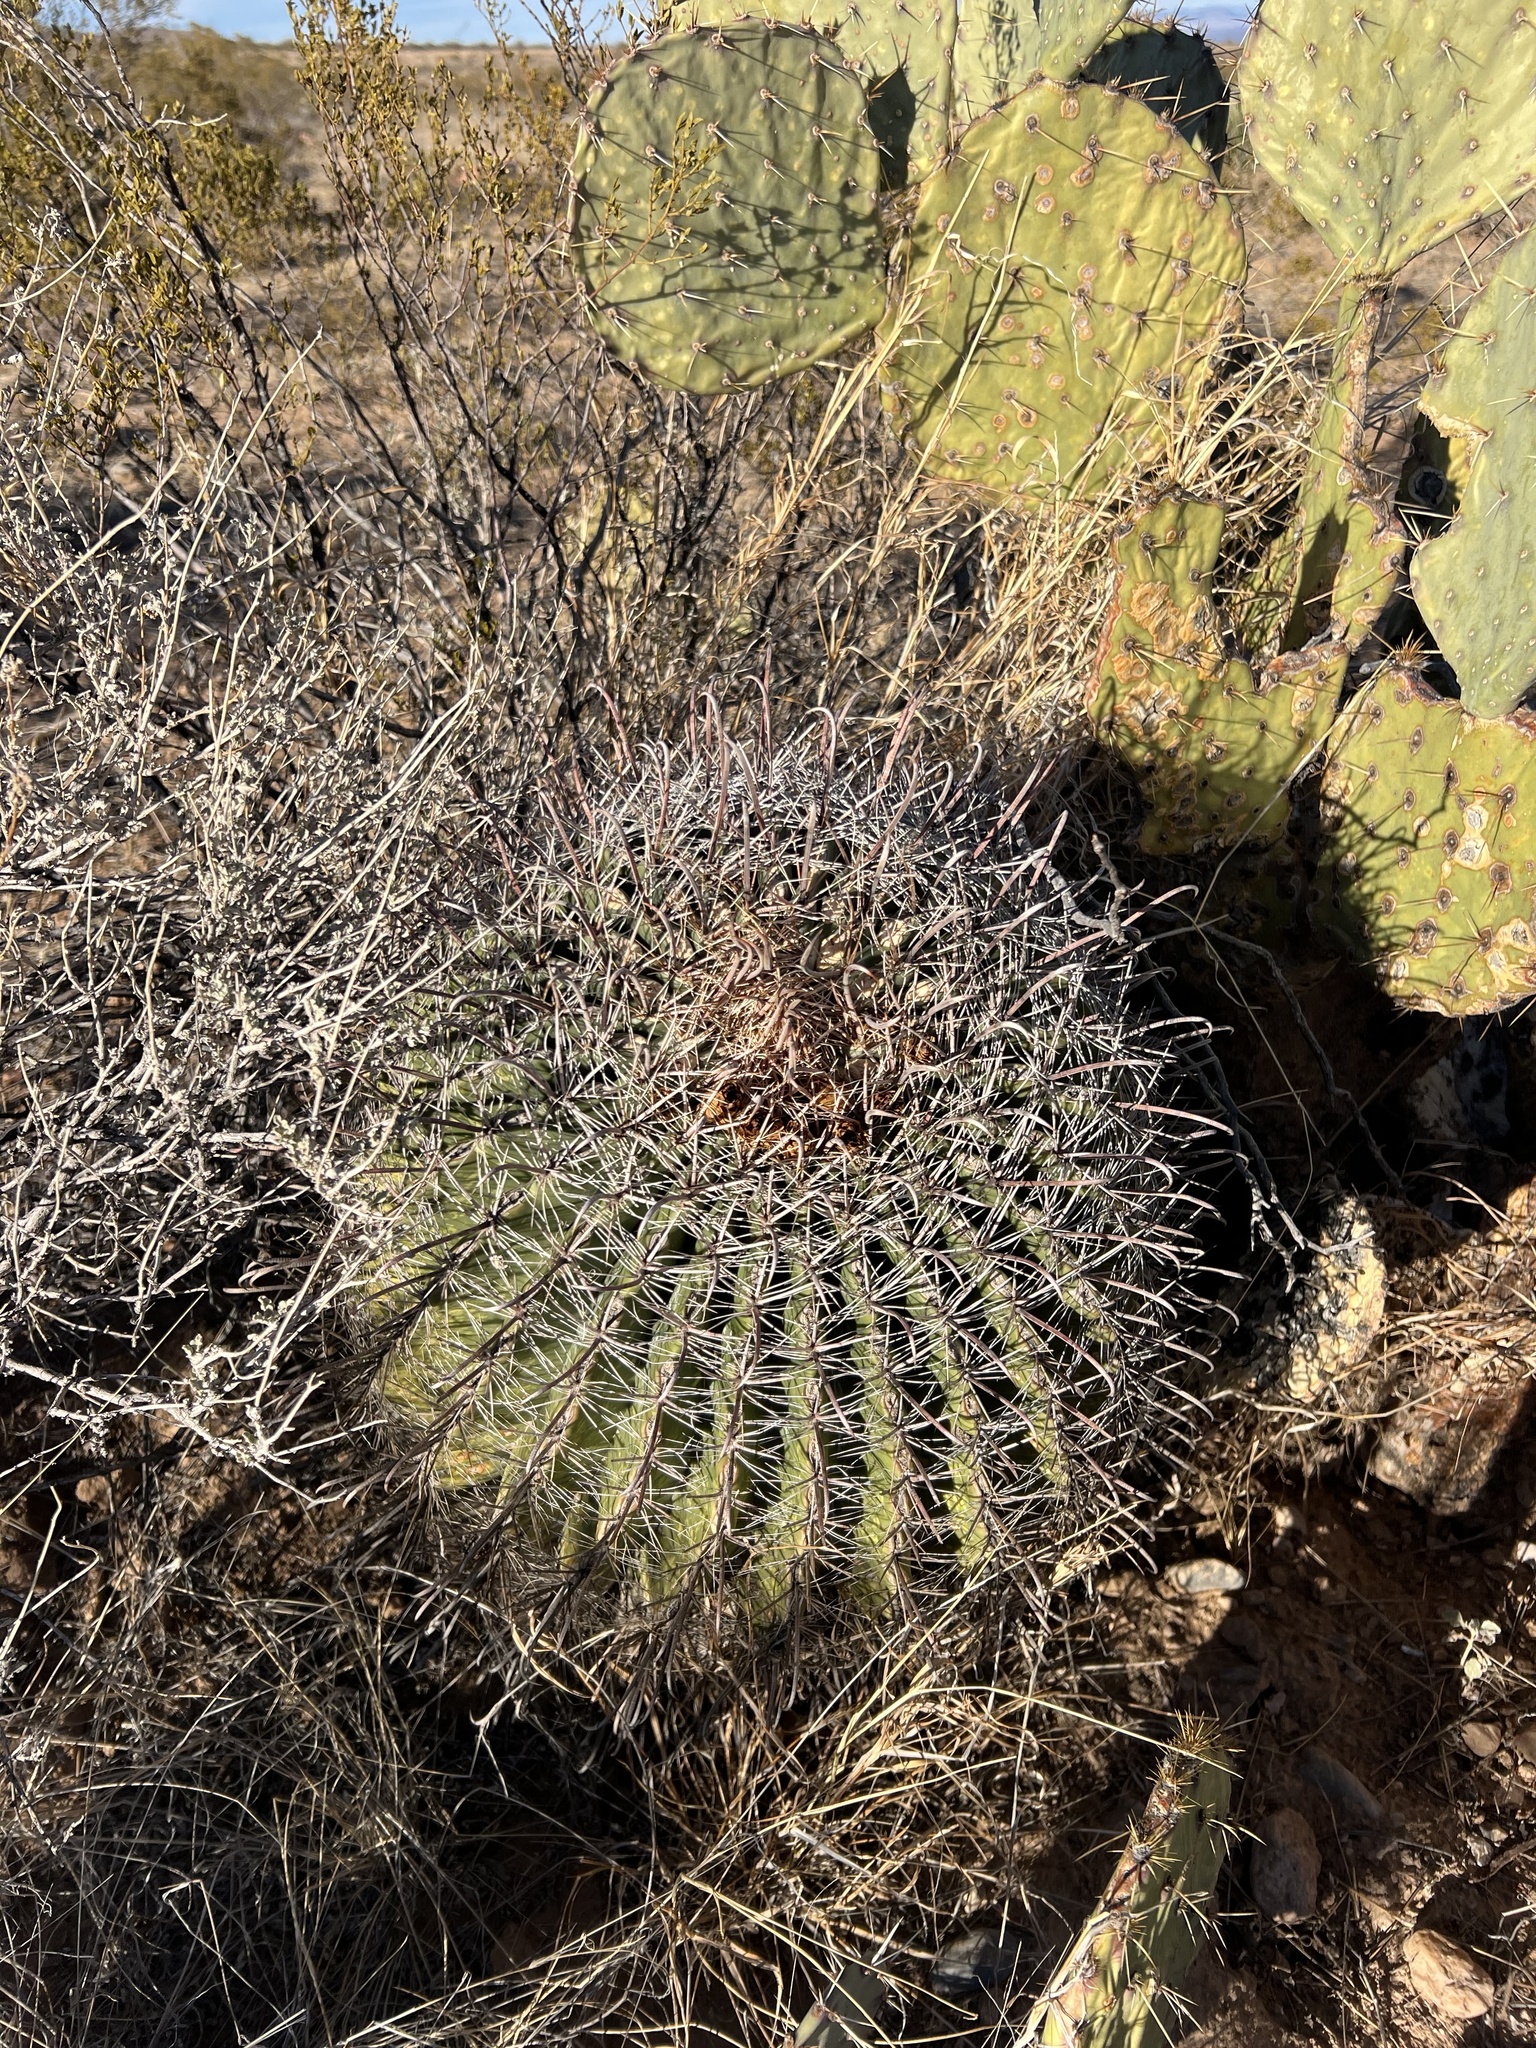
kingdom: Plantae
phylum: Tracheophyta
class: Magnoliopsida
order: Caryophyllales
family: Cactaceae
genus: Ferocactus
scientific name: Ferocactus wislizeni
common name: Candy barrel cactus
